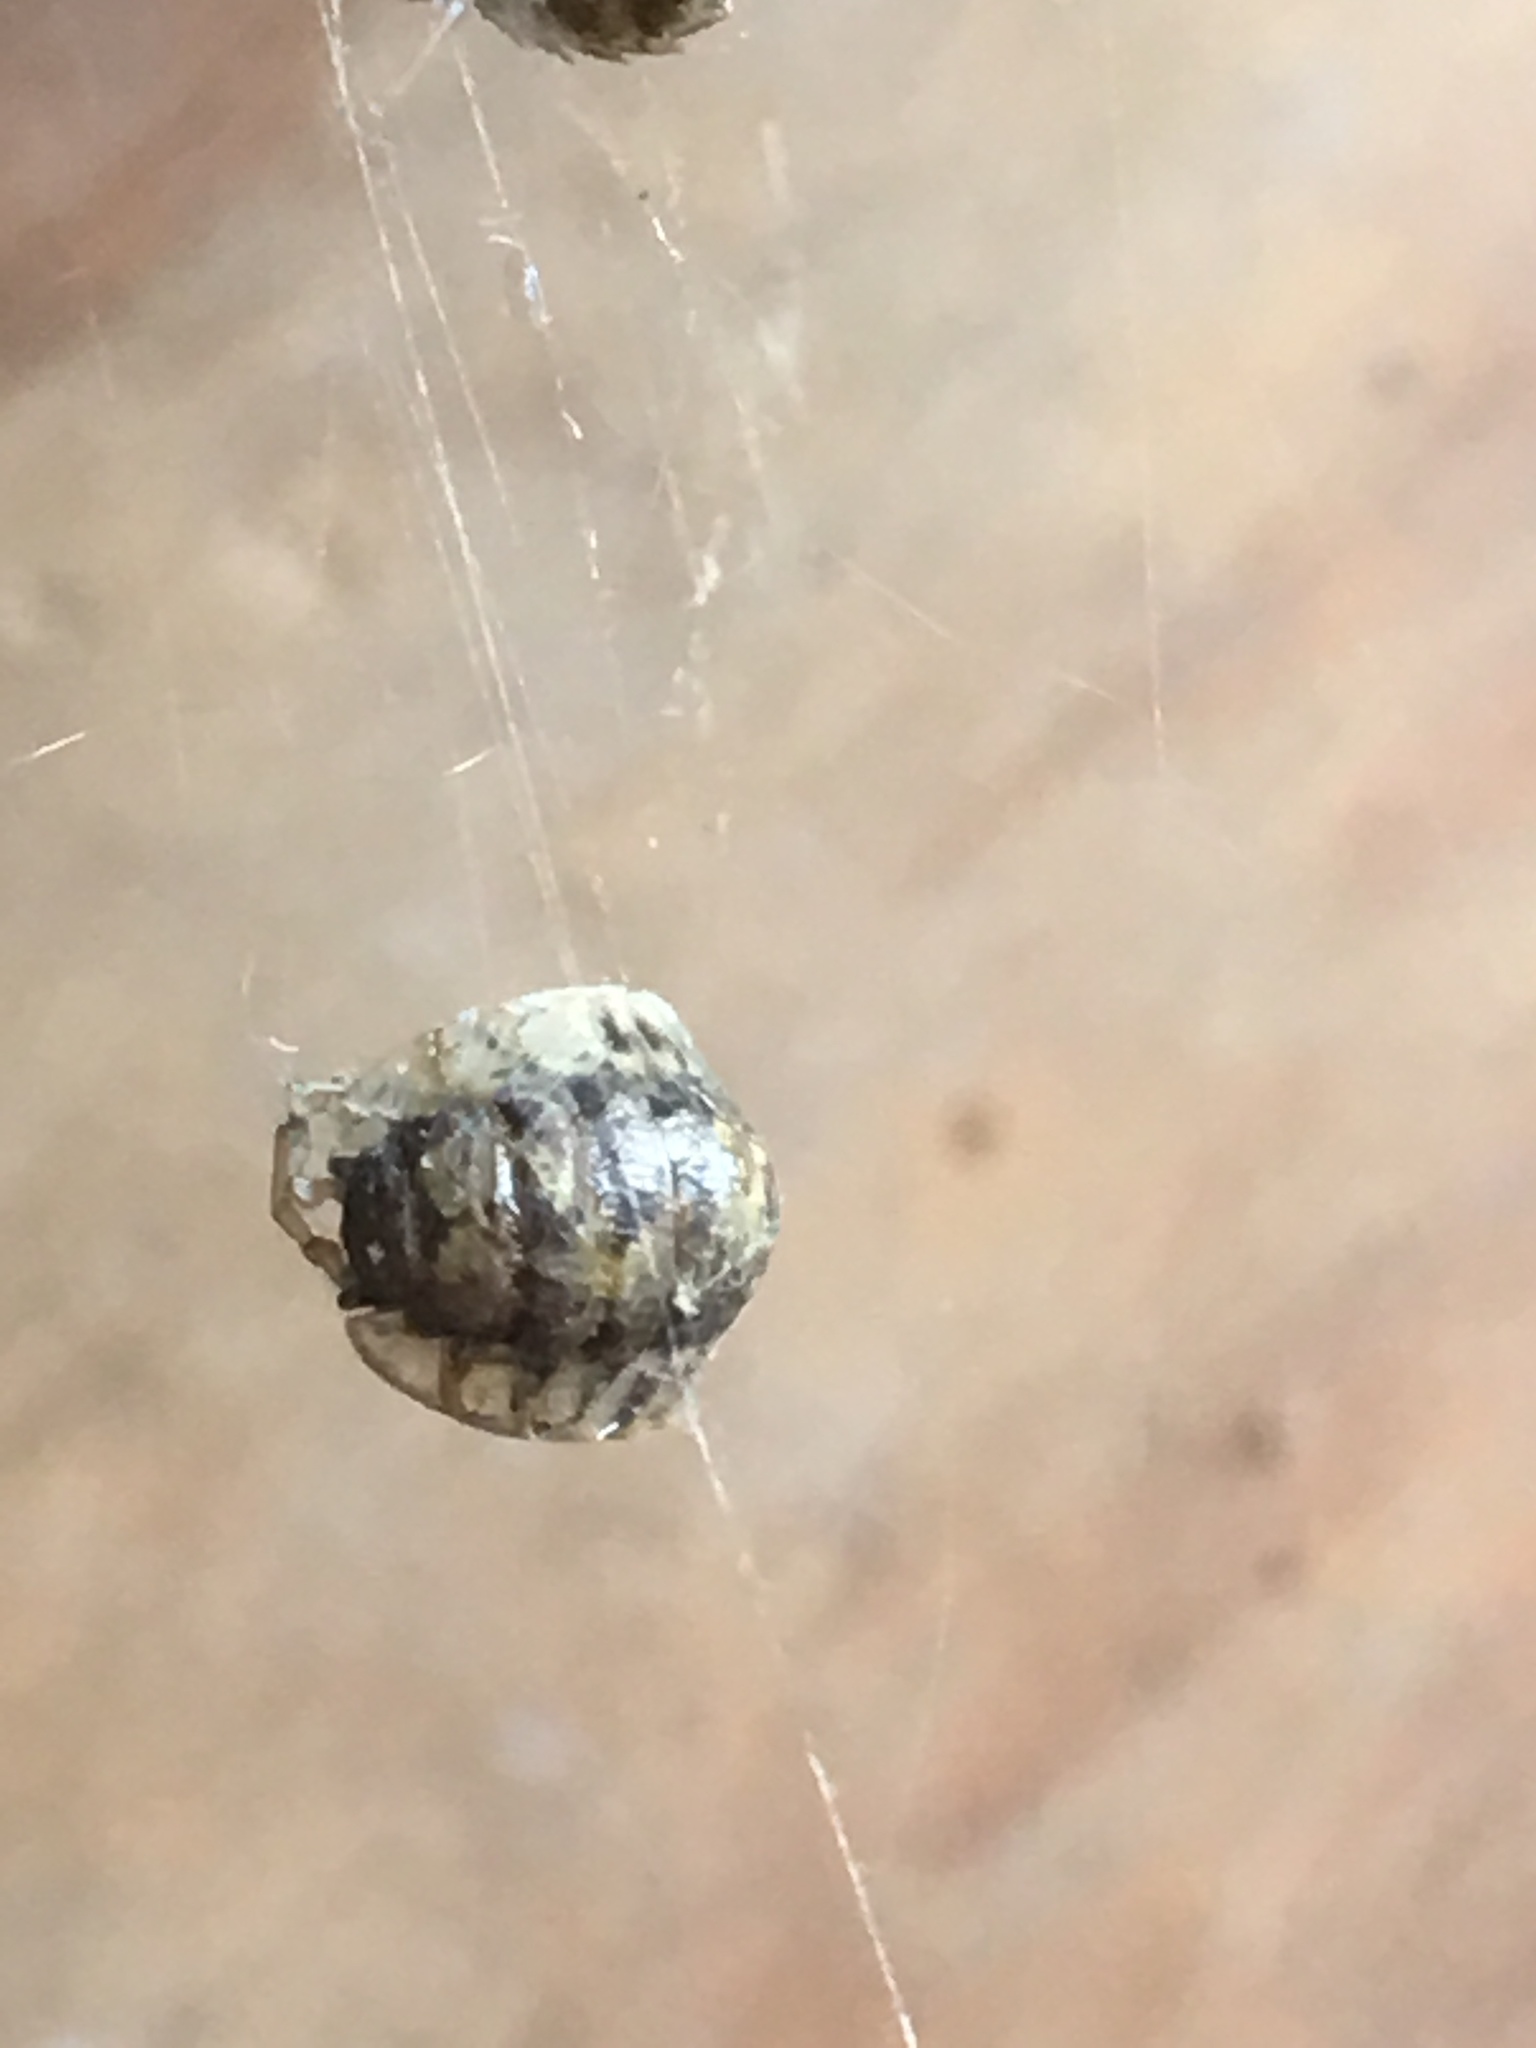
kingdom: Animalia
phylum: Arthropoda
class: Malacostraca
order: Isopoda
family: Oniscidae
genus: Oniscus
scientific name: Oniscus asellus
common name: Common shiny woodlouse
